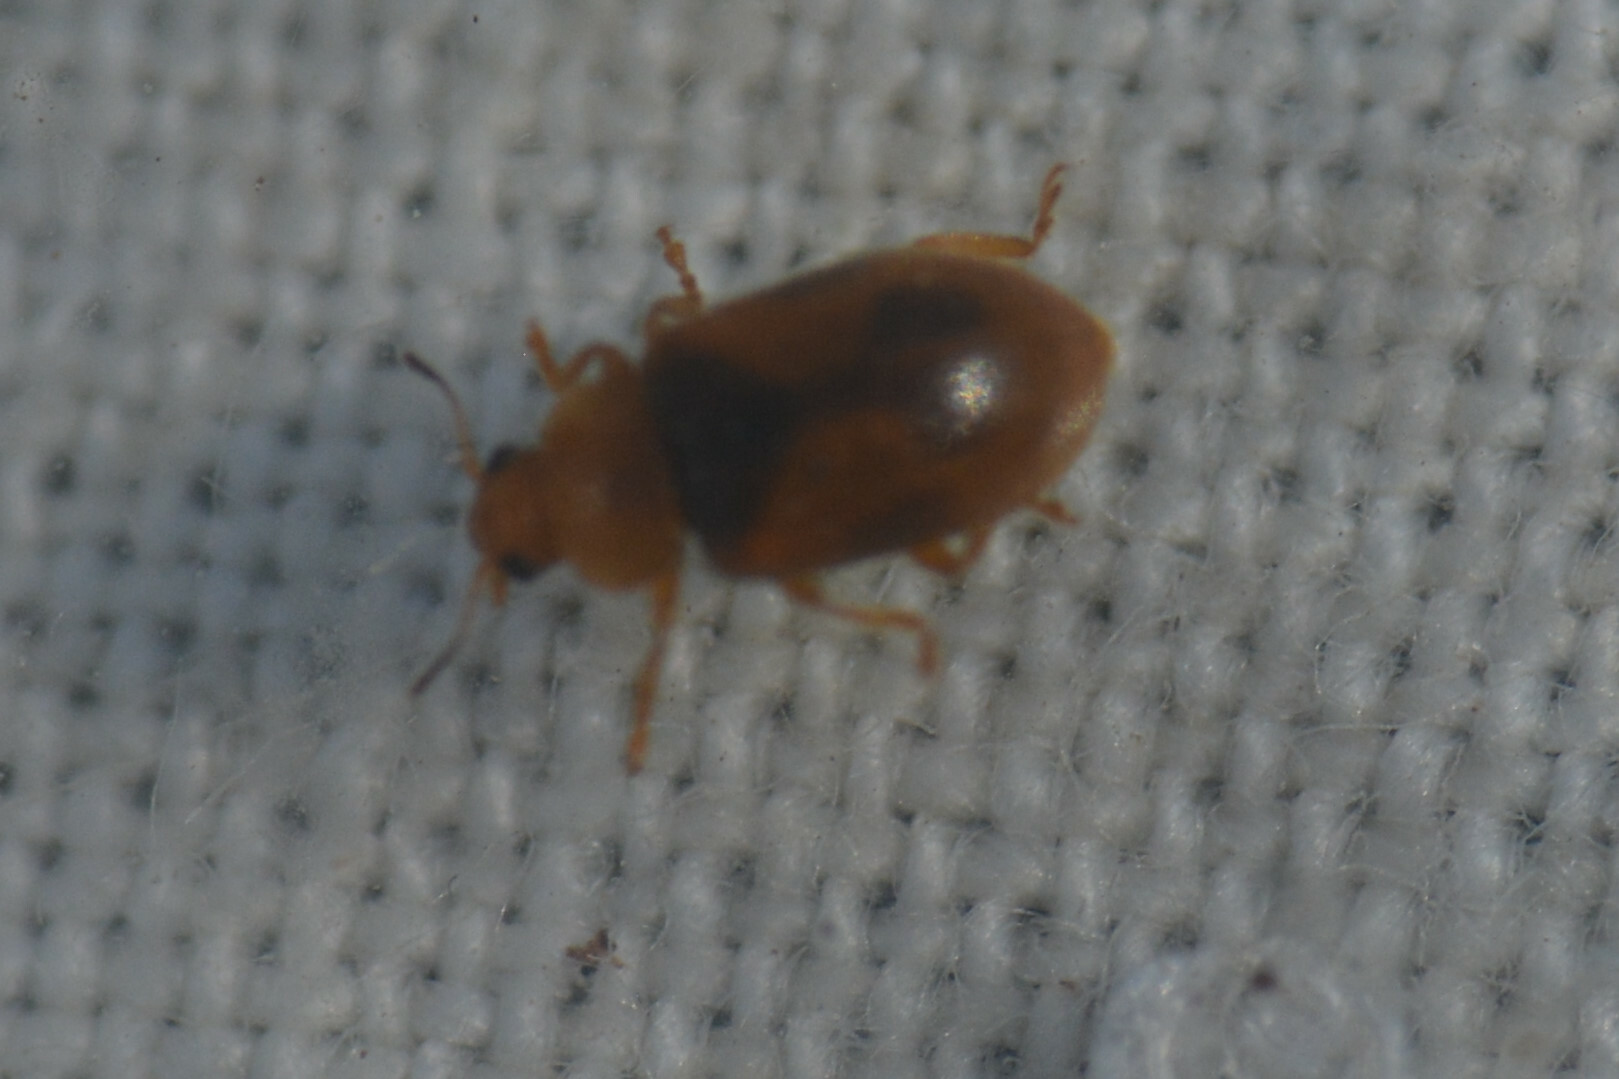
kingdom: Animalia
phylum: Arthropoda
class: Insecta
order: Coleoptera
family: Coccinellidae
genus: Coccidula
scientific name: Coccidula scutellata
